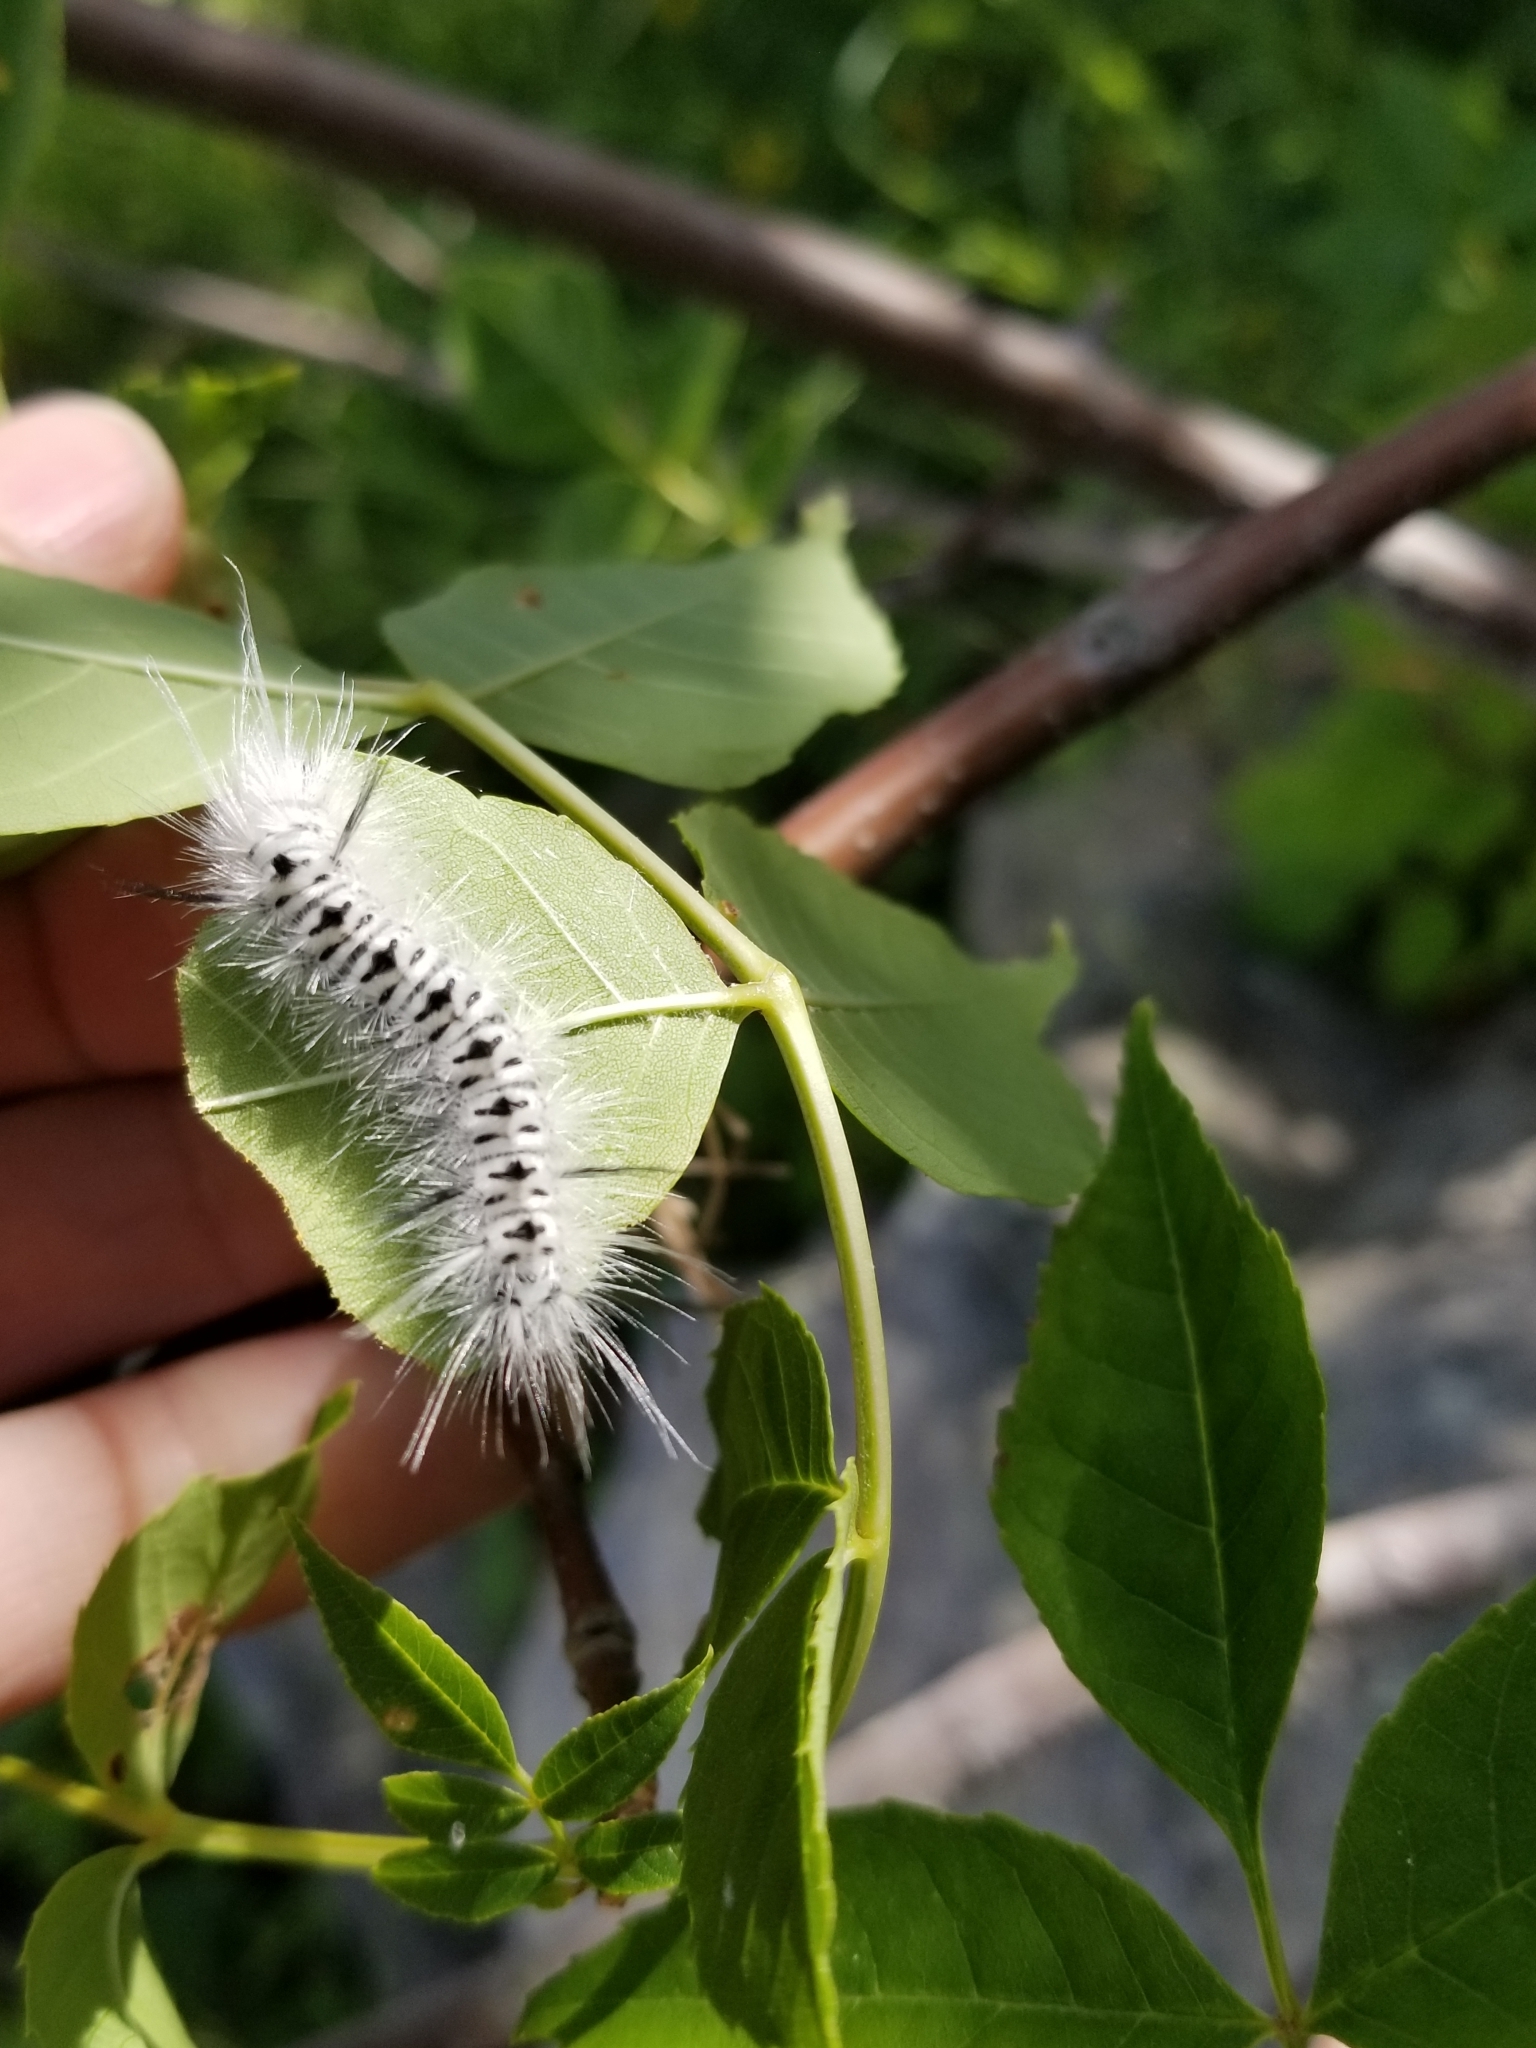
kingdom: Animalia
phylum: Arthropoda
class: Insecta
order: Lepidoptera
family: Erebidae
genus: Lophocampa
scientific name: Lophocampa caryae
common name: Hickory tussock moth
